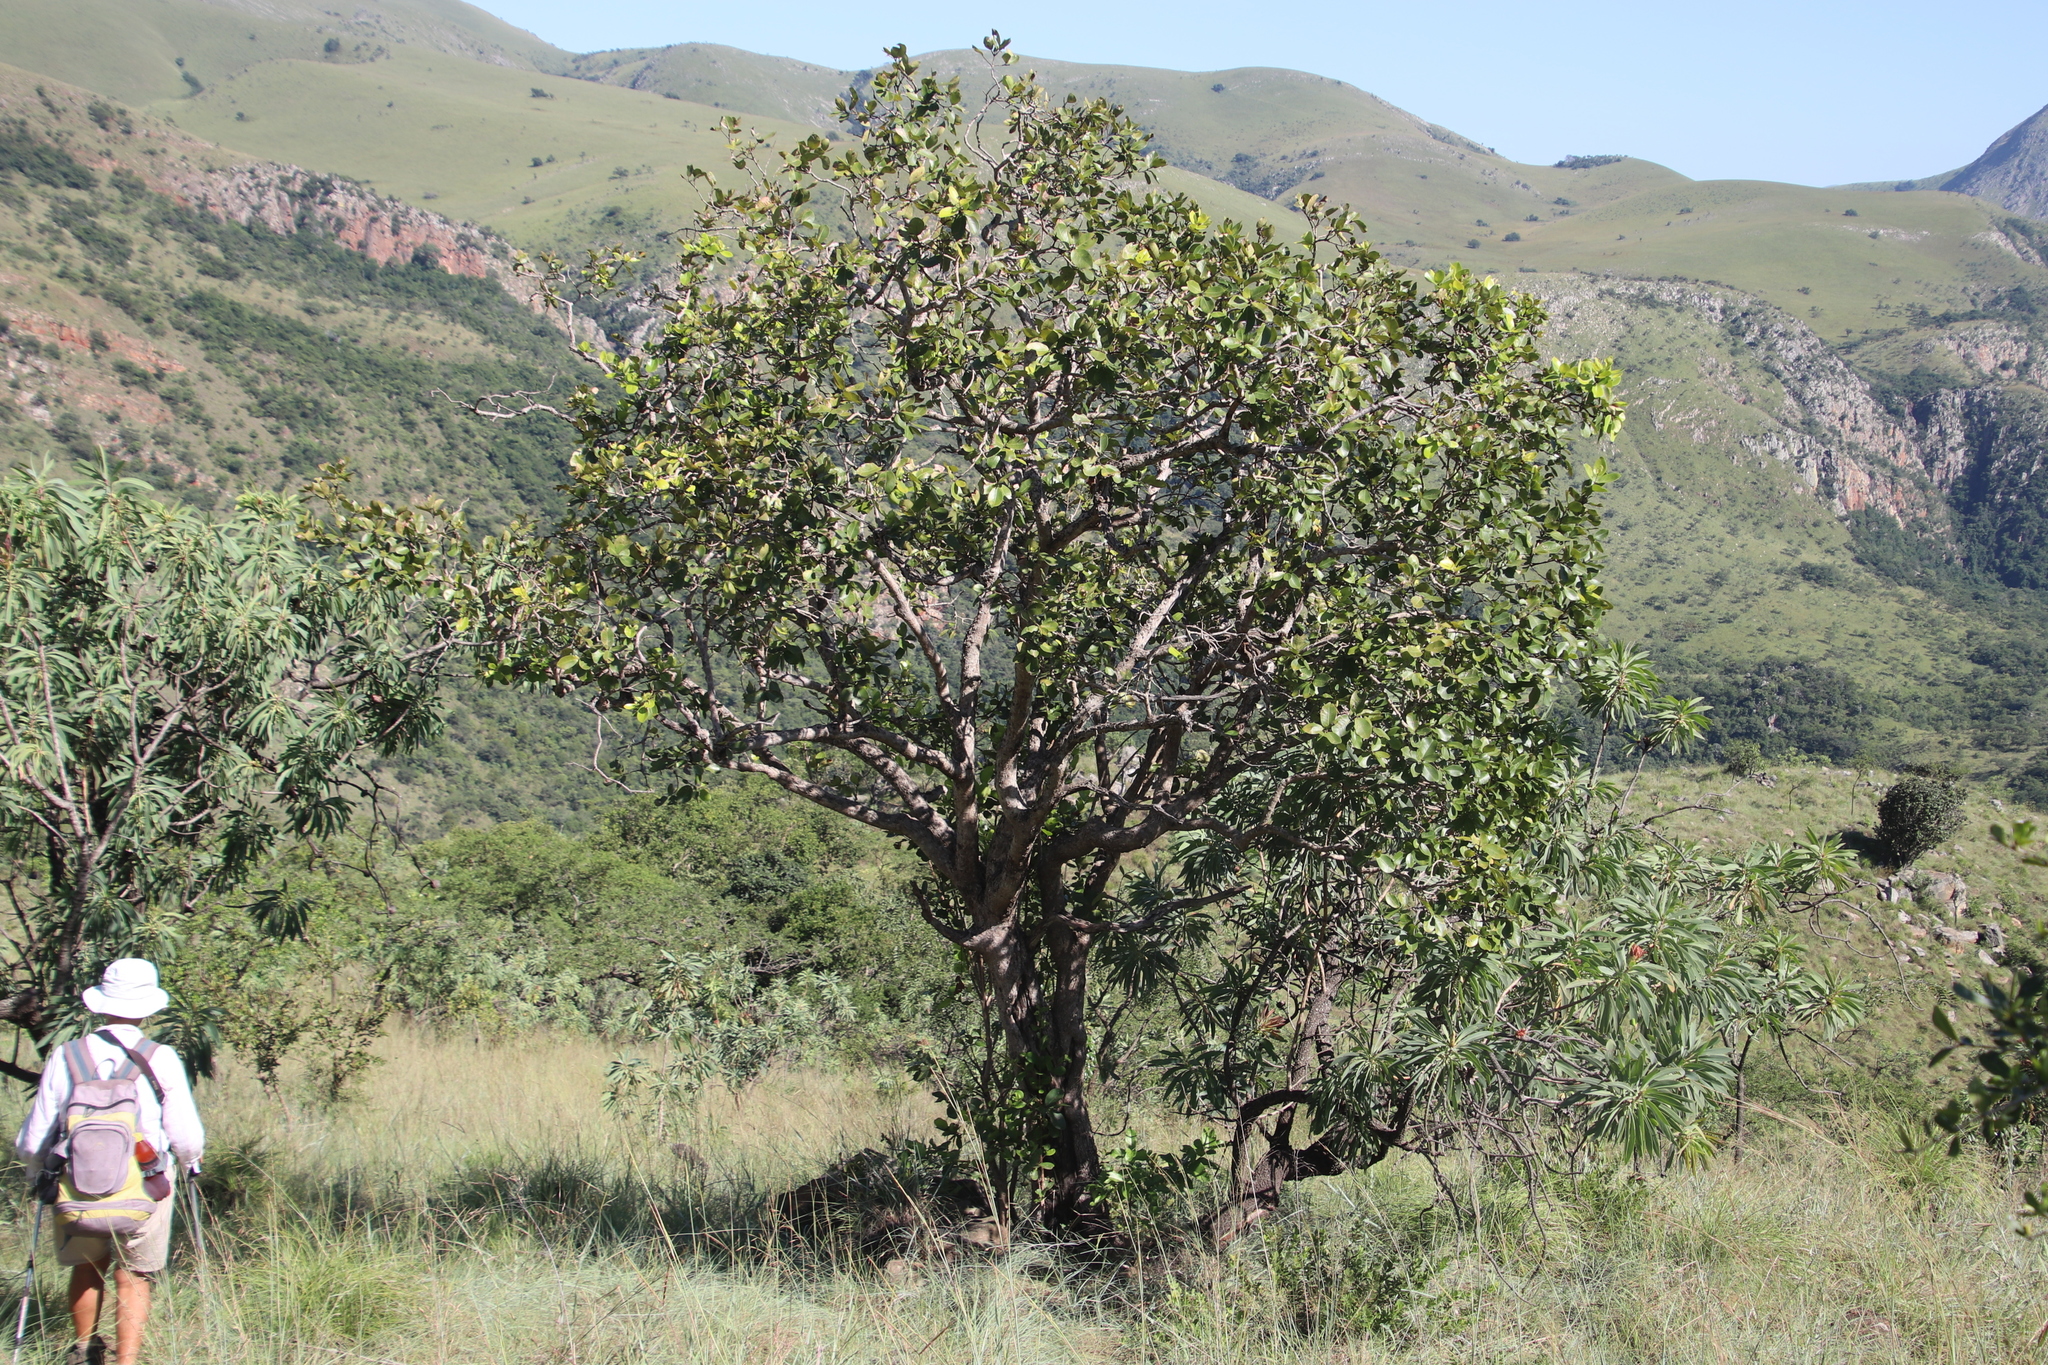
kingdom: Plantae
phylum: Tracheophyta
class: Magnoliopsida
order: Myrtales
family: Myrtaceae
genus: Syzygium
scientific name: Syzygium cordatum
